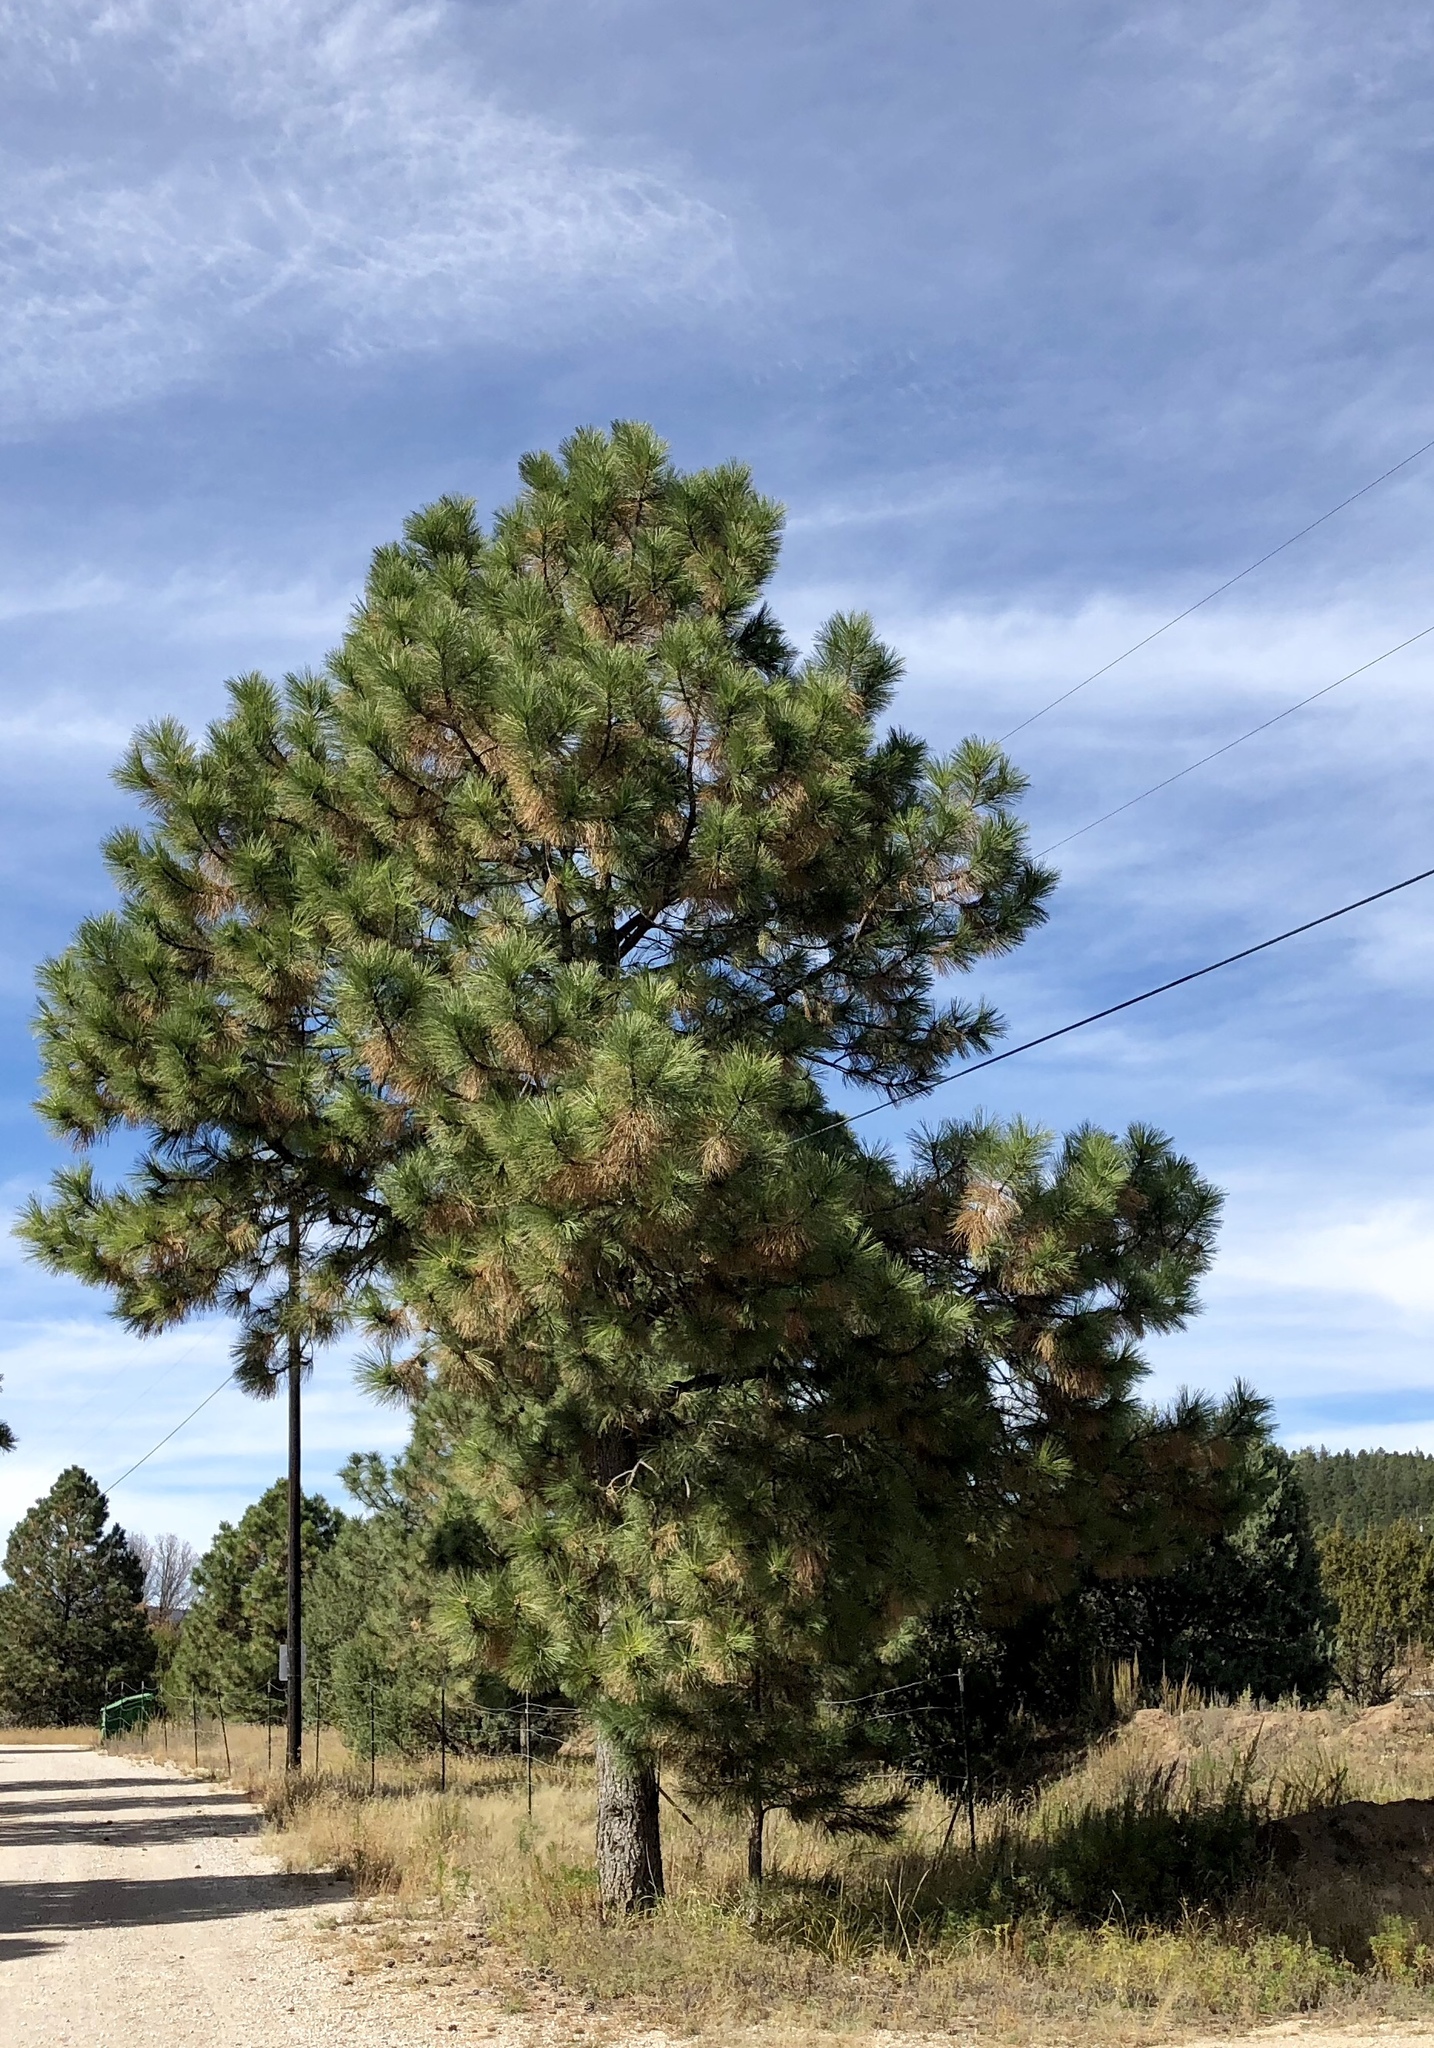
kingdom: Plantae
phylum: Tracheophyta
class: Pinopsida
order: Pinales
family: Pinaceae
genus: Pinus
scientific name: Pinus ponderosa
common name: Western yellow-pine
